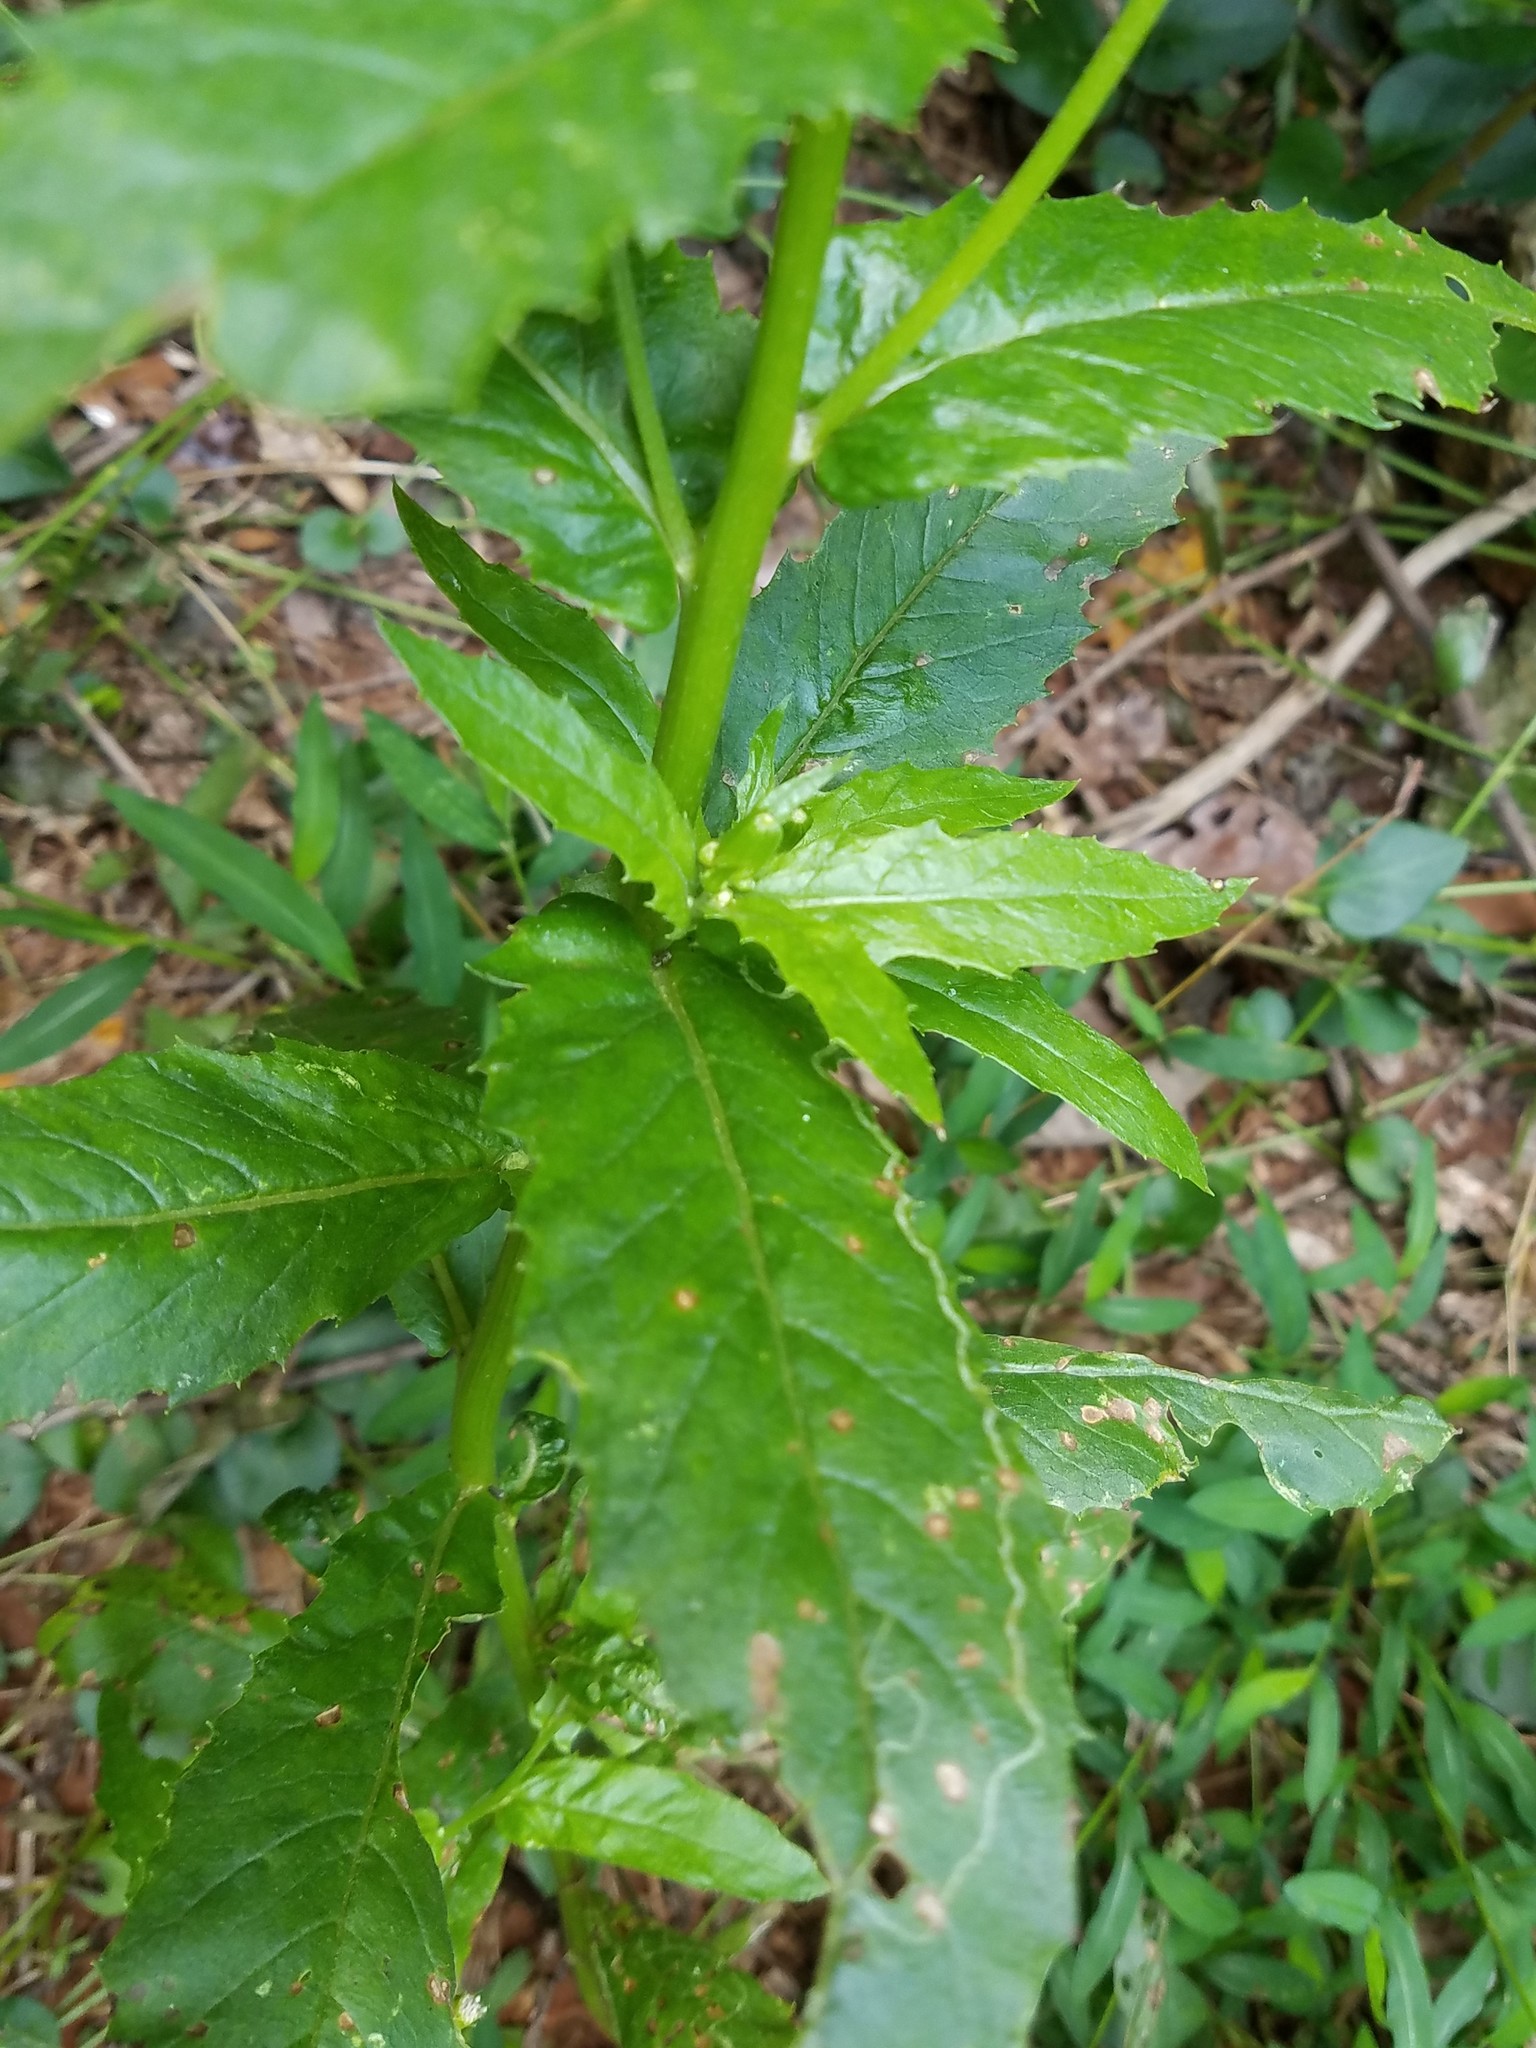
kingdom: Plantae
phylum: Tracheophyta
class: Magnoliopsida
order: Asterales
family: Asteraceae
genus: Erechtites
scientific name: Erechtites hieraciifolius
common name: American burnweed
